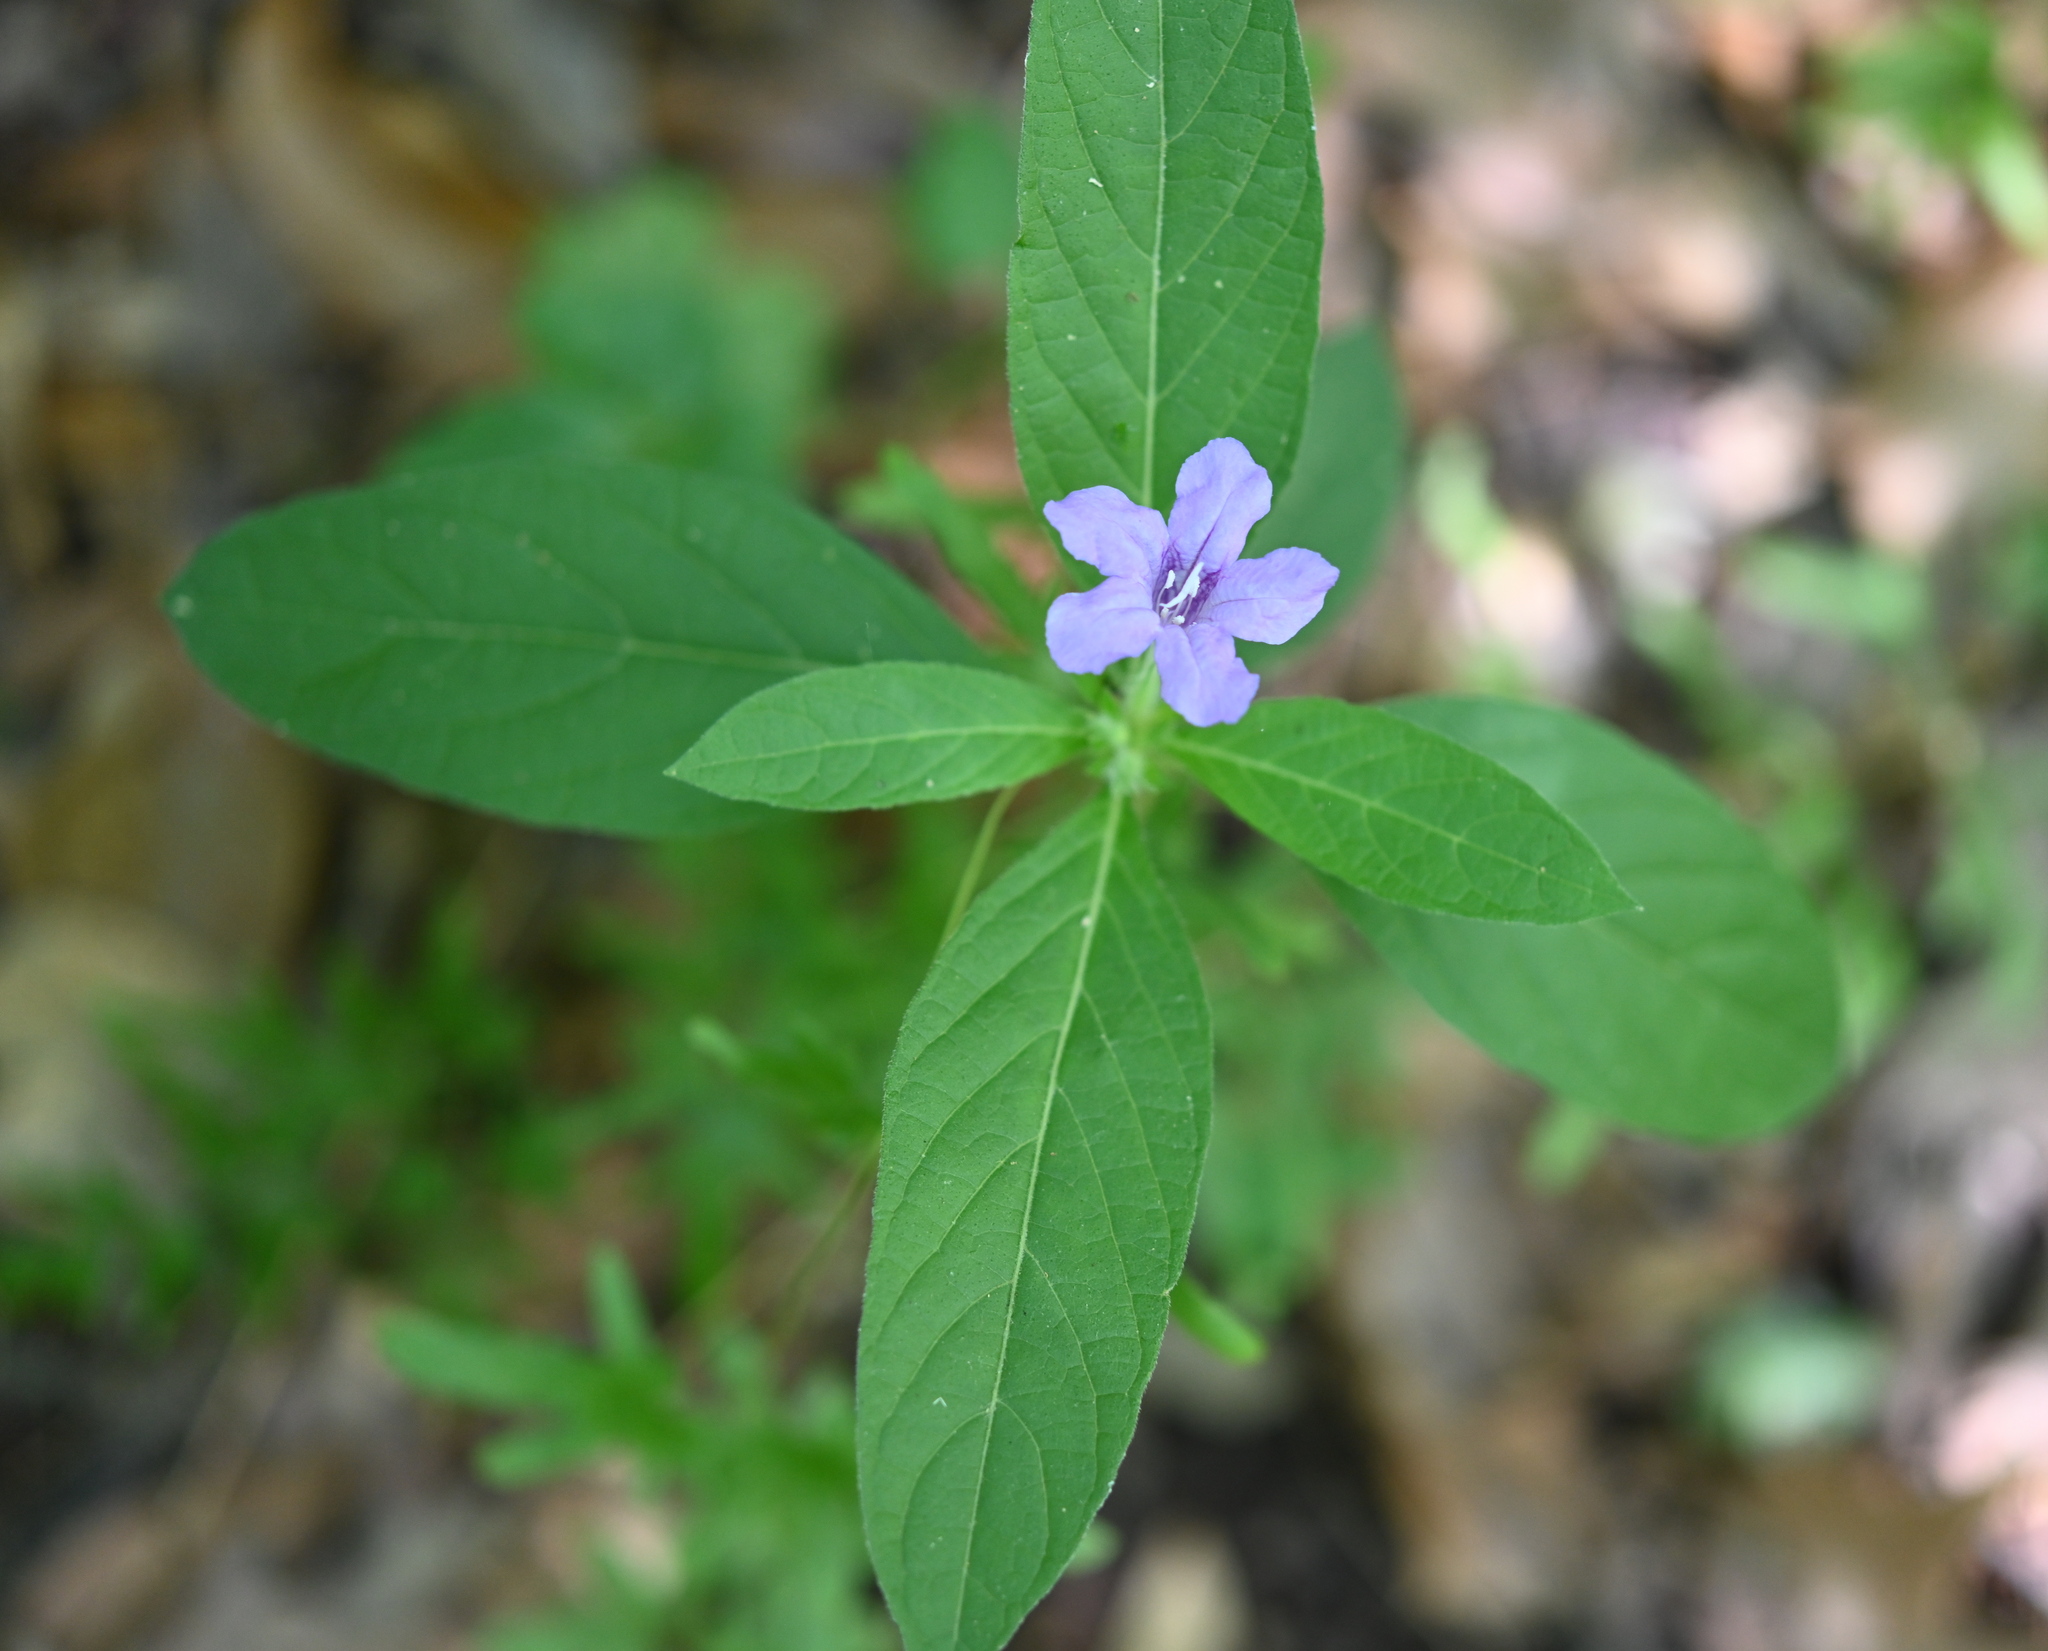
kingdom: Plantae
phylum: Tracheophyta
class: Magnoliopsida
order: Lamiales
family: Acanthaceae
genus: Ruellia
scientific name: Ruellia caroliniensis
